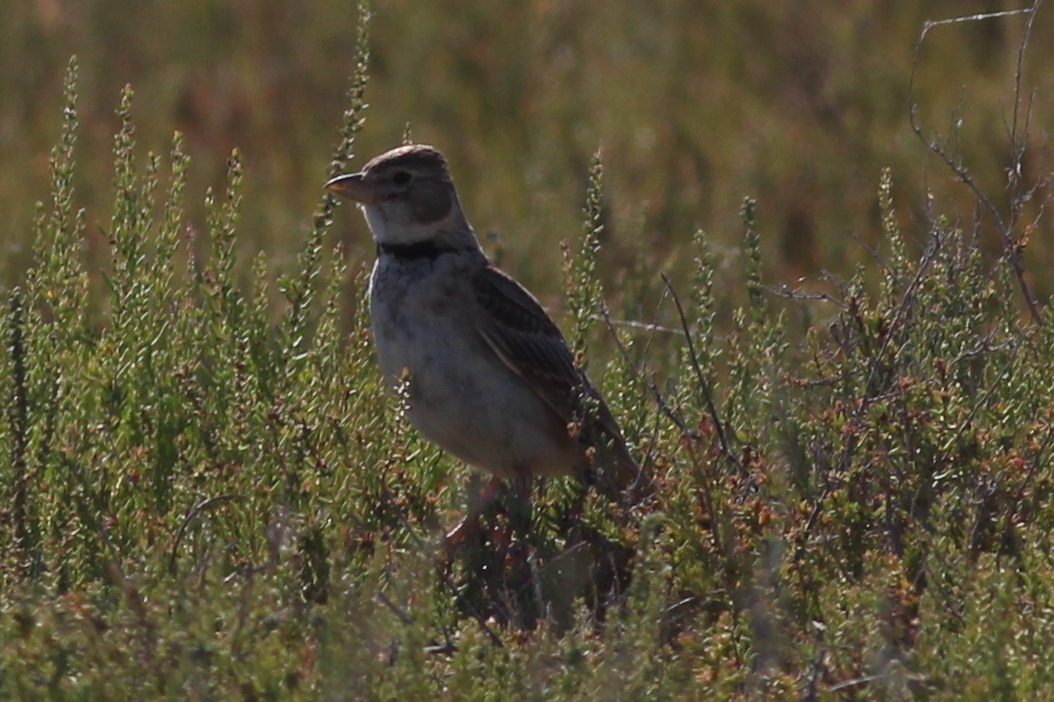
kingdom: Animalia
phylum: Chordata
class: Aves
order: Passeriformes
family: Alaudidae
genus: Melanocorypha
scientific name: Melanocorypha calandra
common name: Calandra lark
